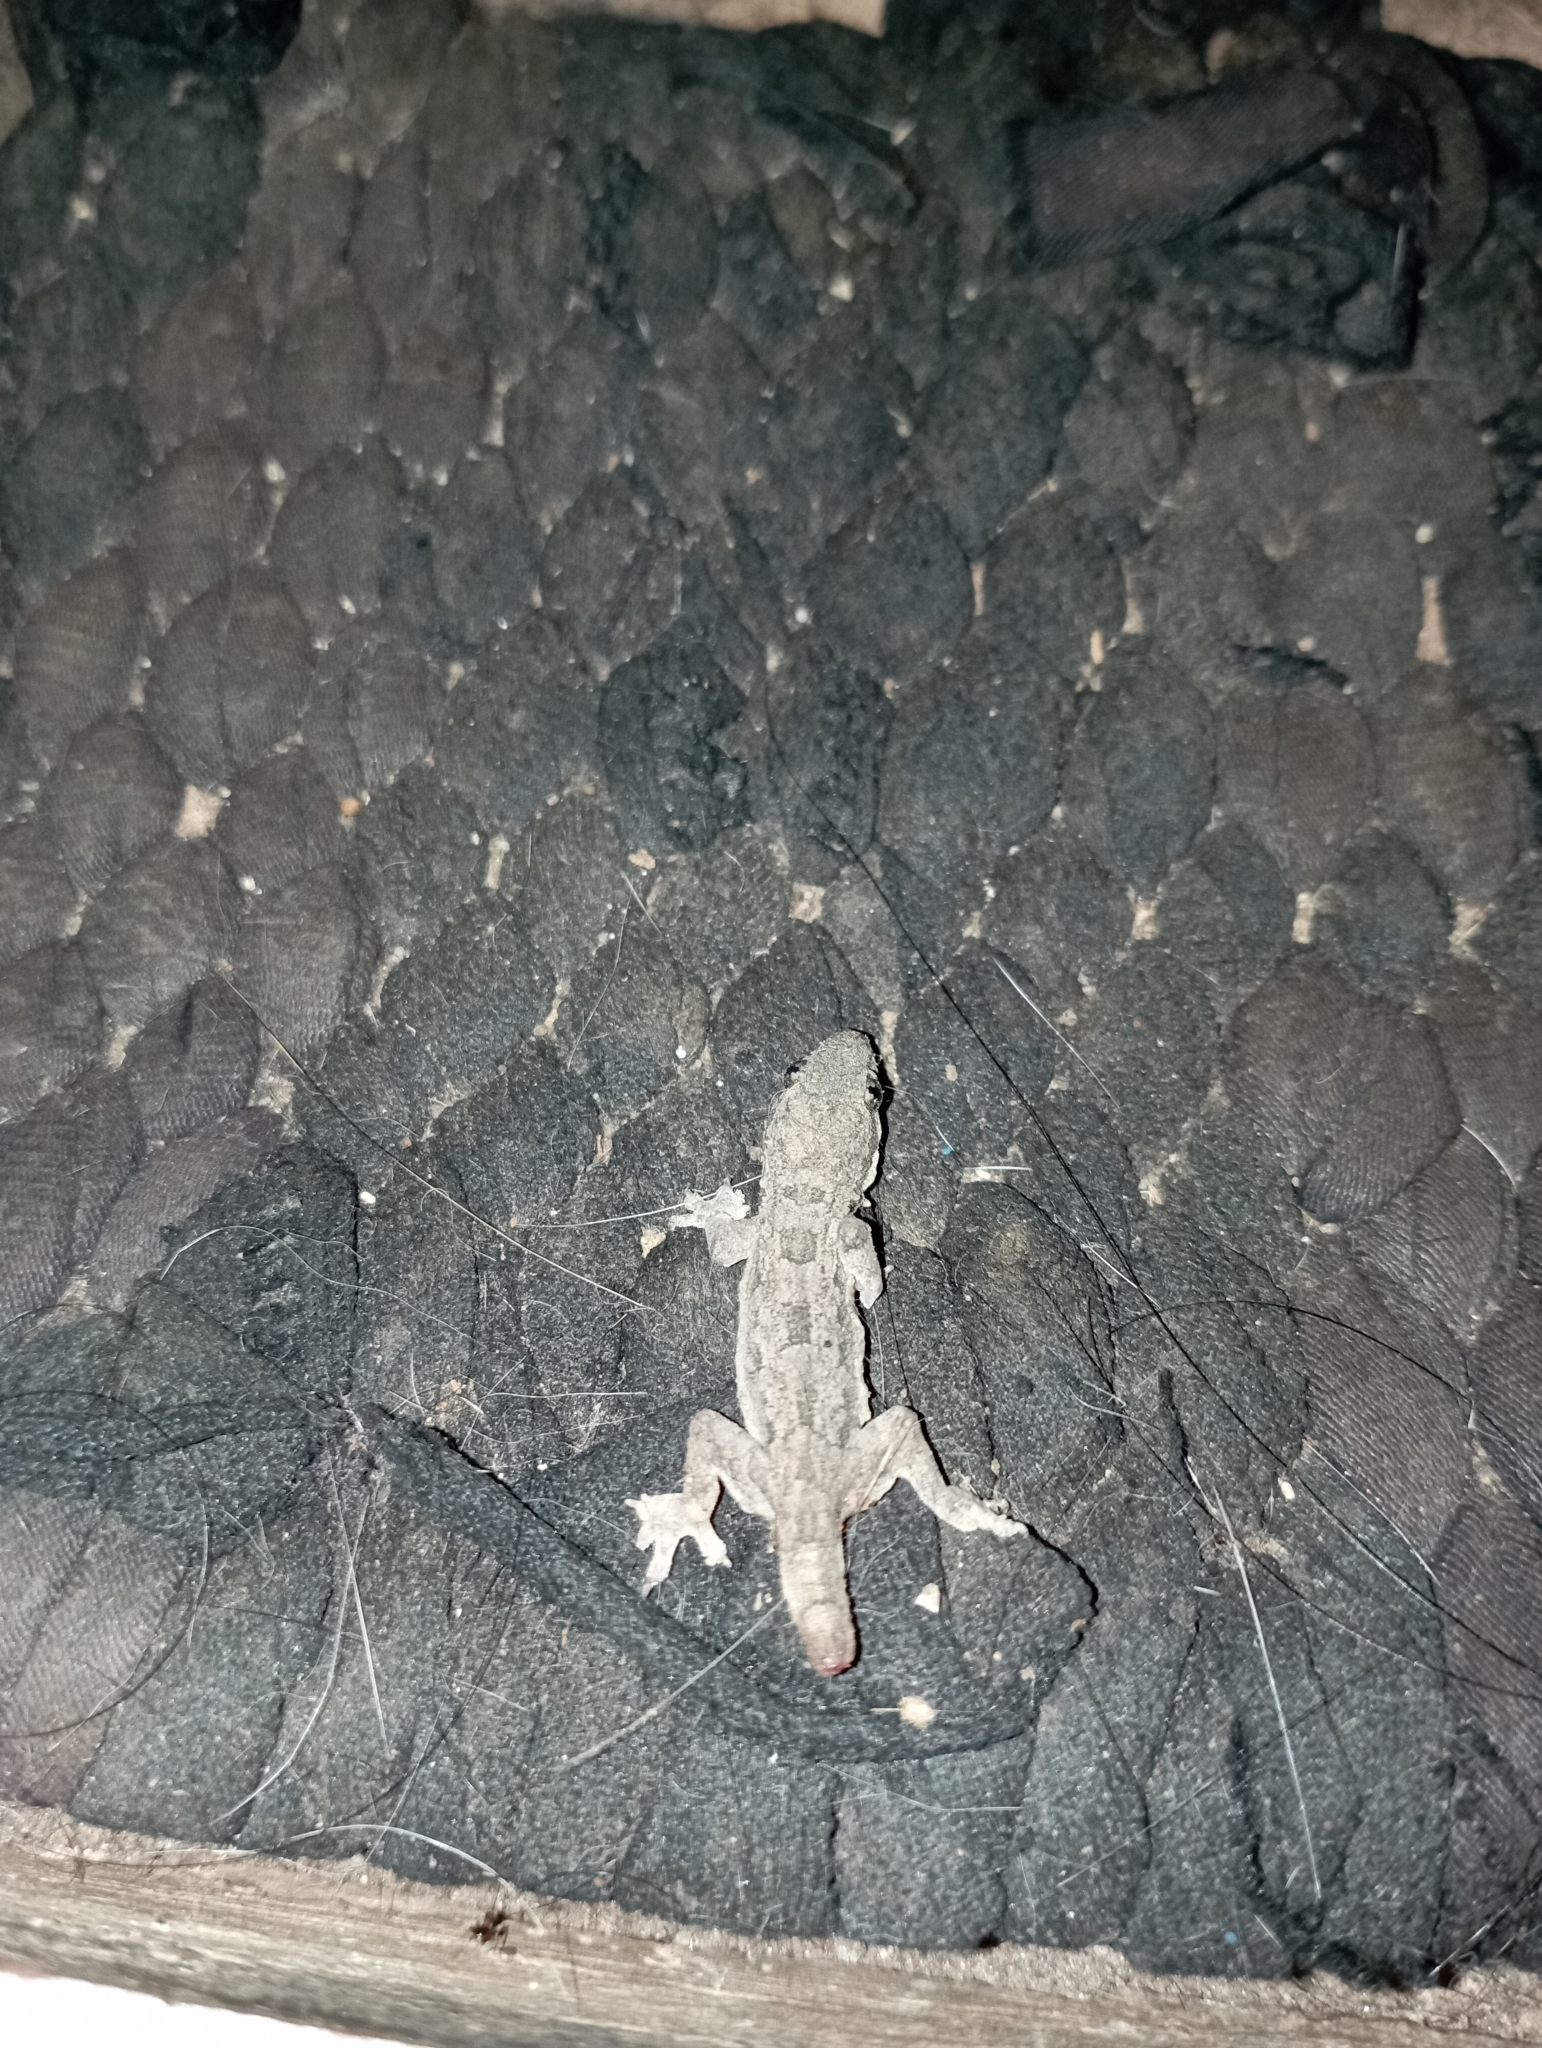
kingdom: Animalia
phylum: Chordata
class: Squamata
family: Gekkonidae
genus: Hemidactylus
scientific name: Hemidactylus platyurus
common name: Flat-tailed house gecko
